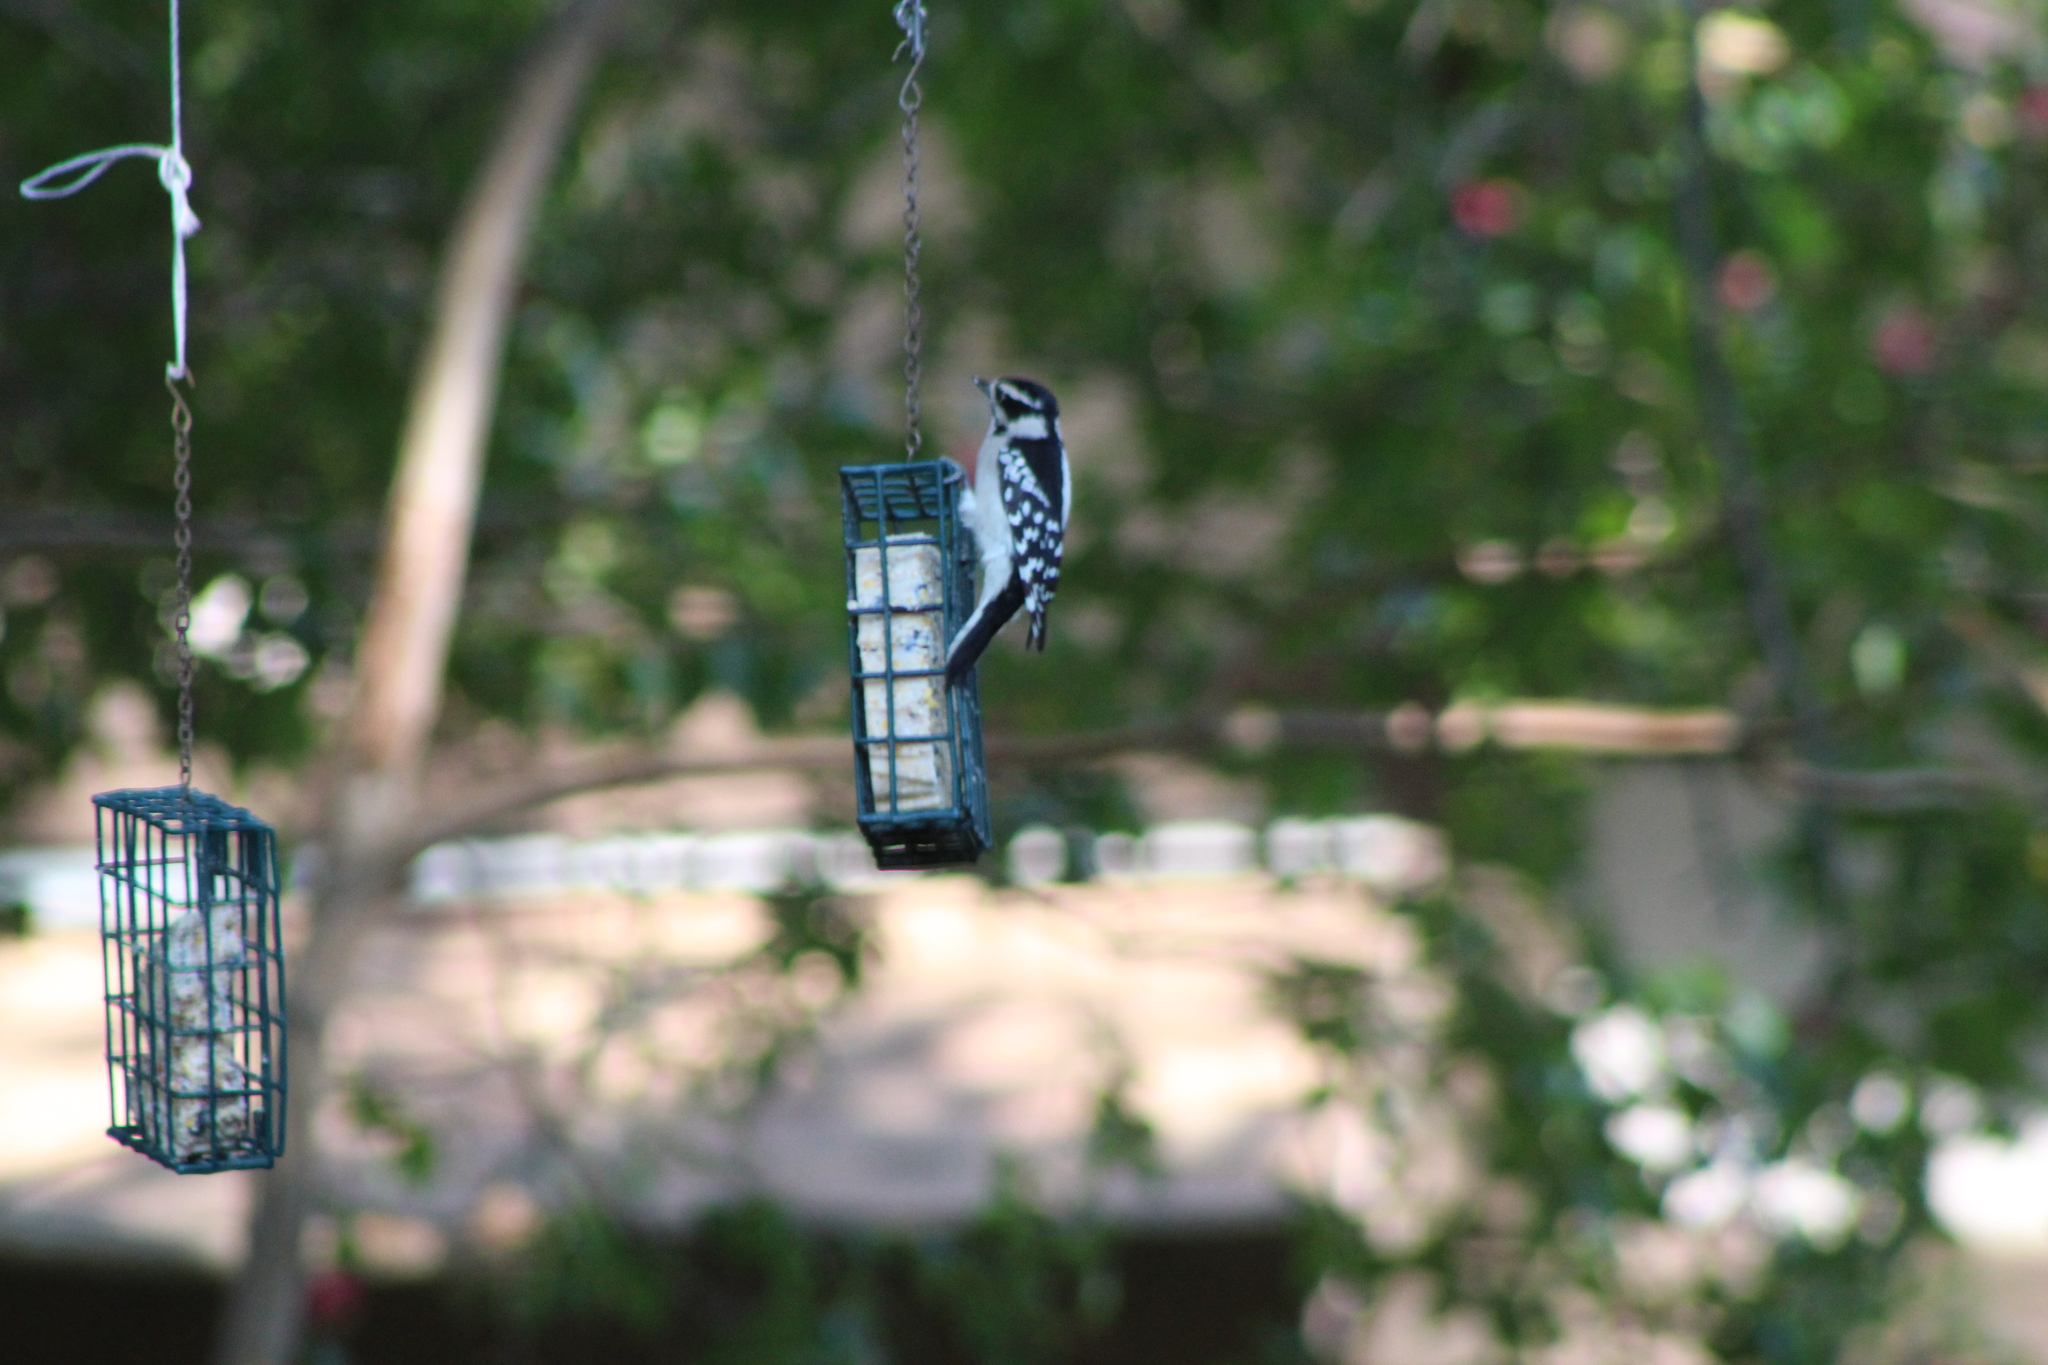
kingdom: Animalia
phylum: Chordata
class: Aves
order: Piciformes
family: Picidae
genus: Dryobates
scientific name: Dryobates pubescens
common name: Downy woodpecker
